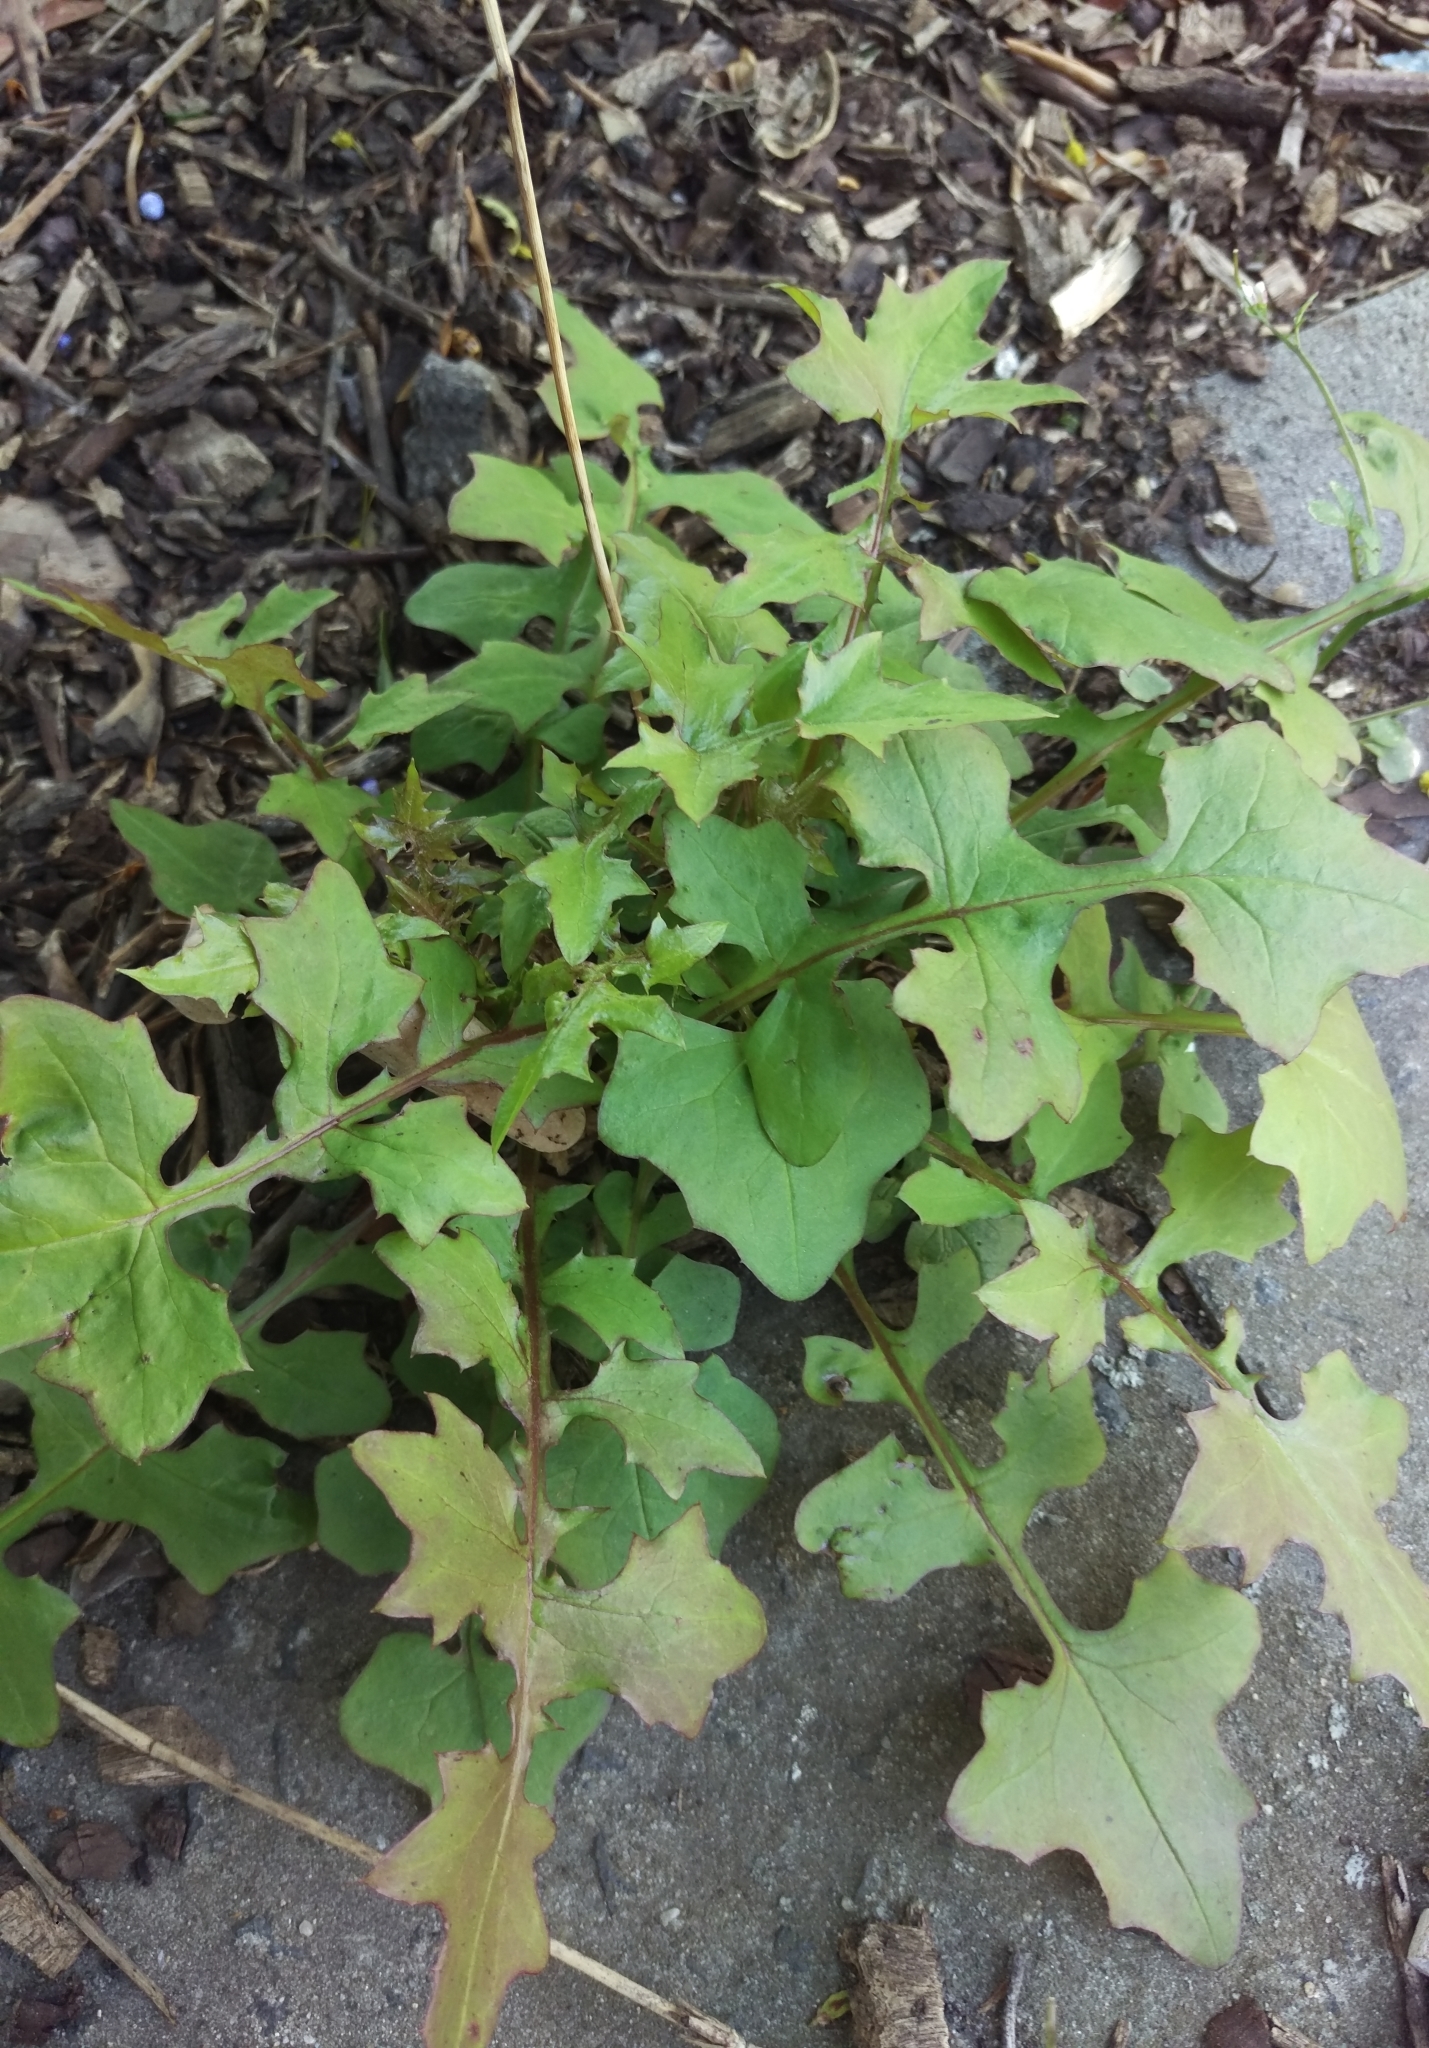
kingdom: Plantae
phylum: Tracheophyta
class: Magnoliopsida
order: Asterales
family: Asteraceae
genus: Mycelis
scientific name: Mycelis muralis
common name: Wall lettuce
